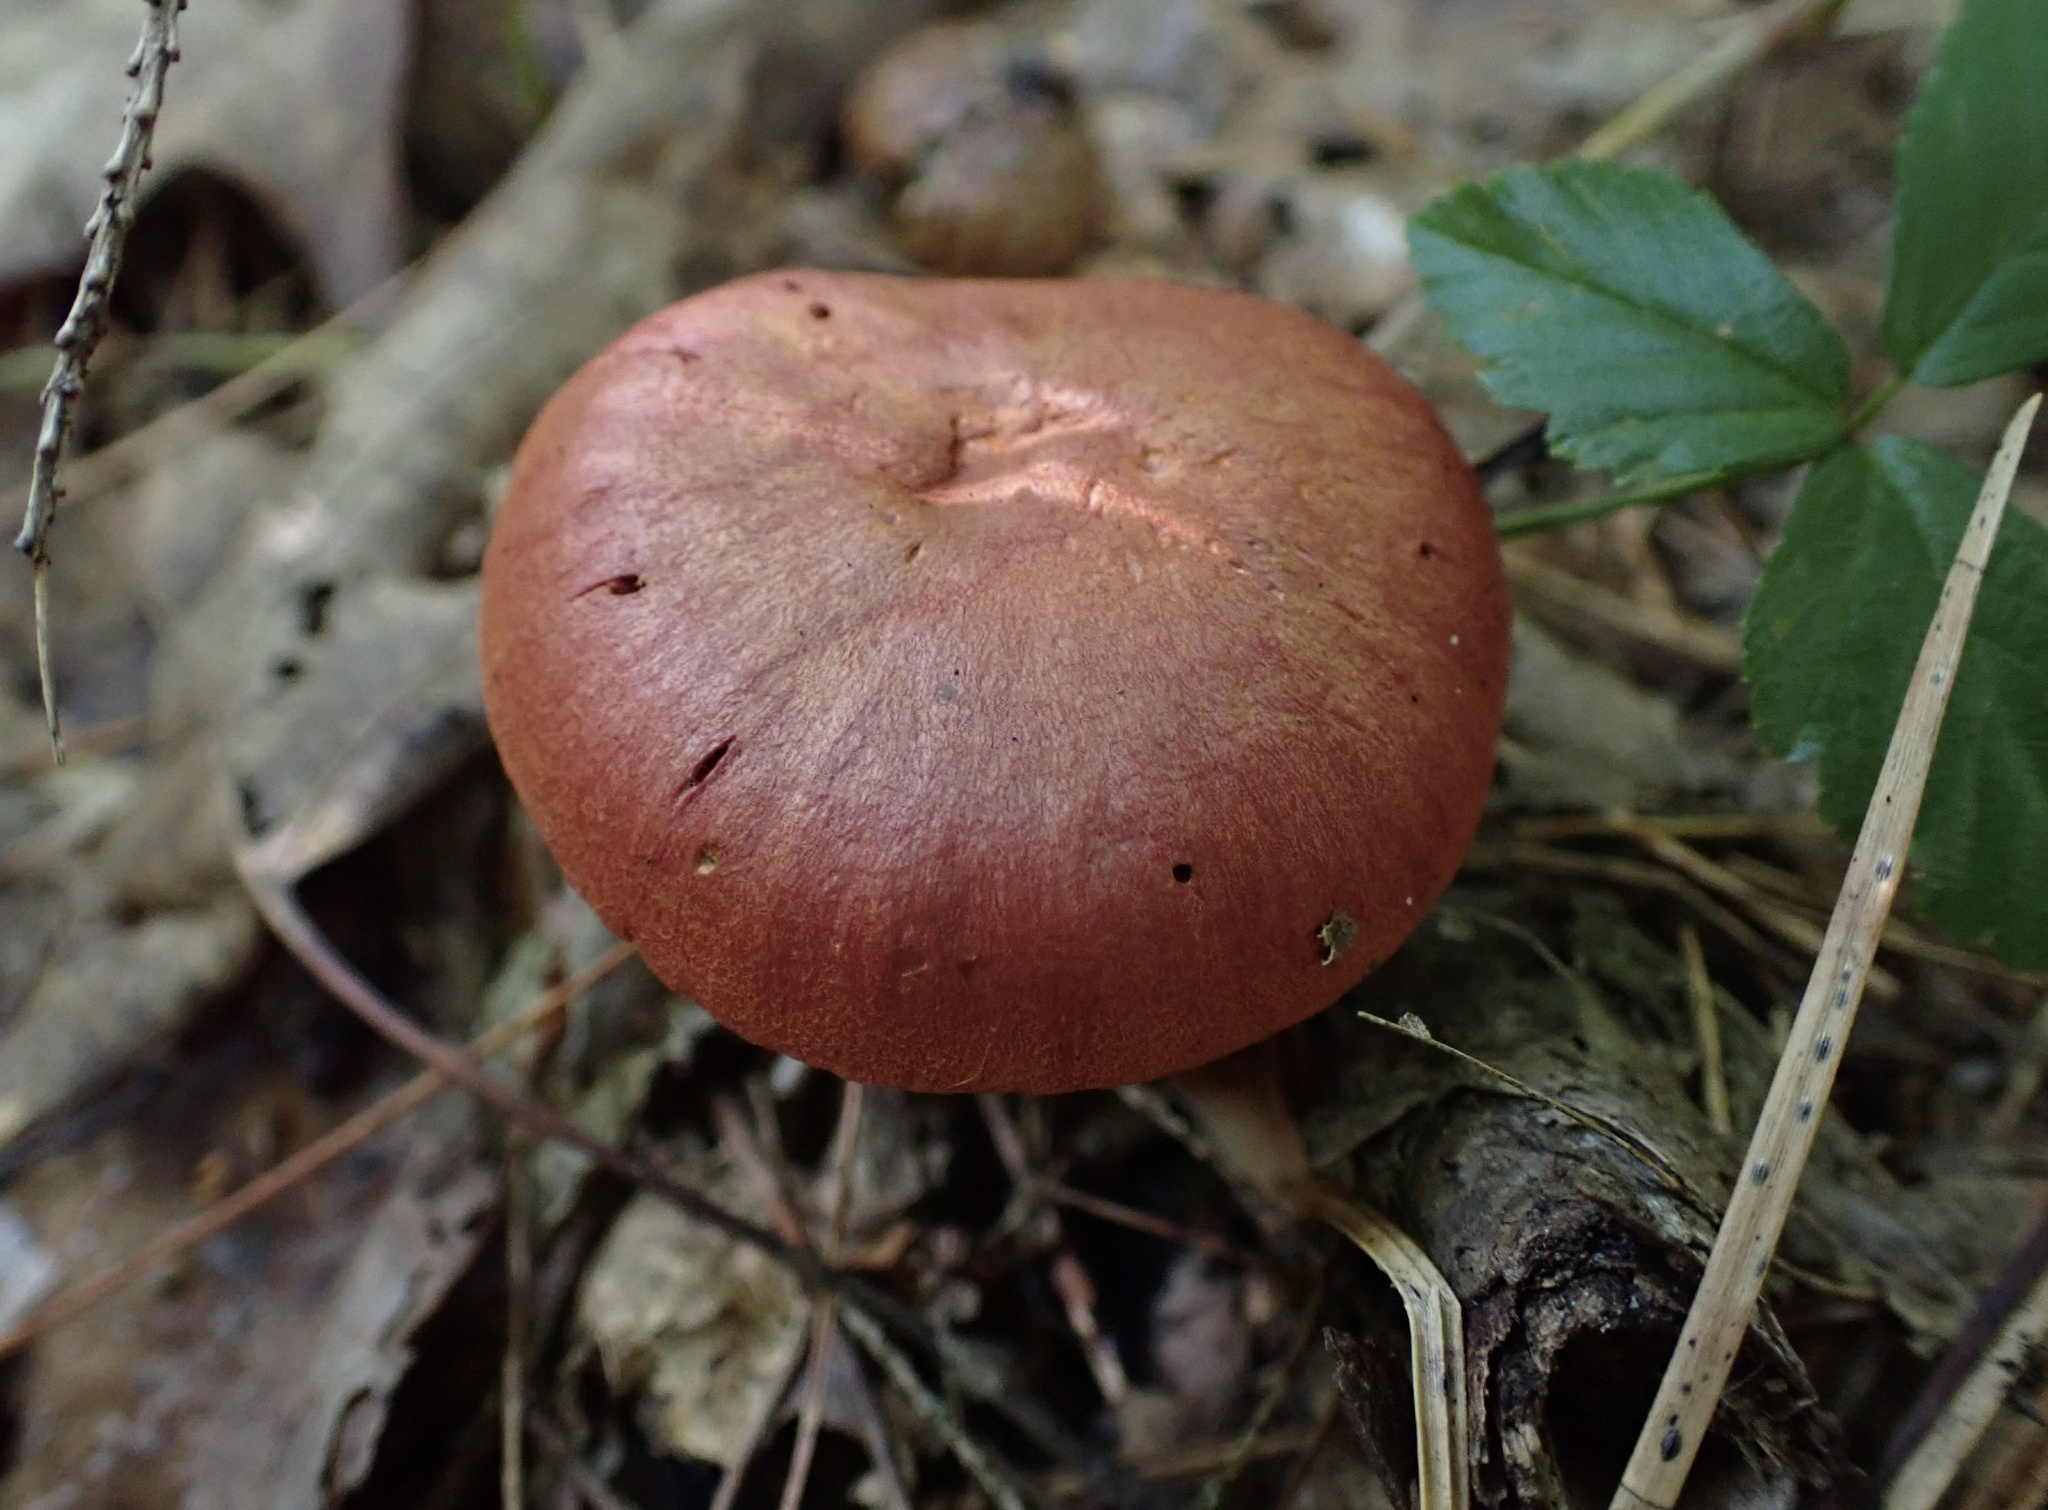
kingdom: Fungi
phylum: Basidiomycota
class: Agaricomycetes
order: Agaricales
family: Cortinariaceae
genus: Cortinarius
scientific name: Cortinarius harrisonii
